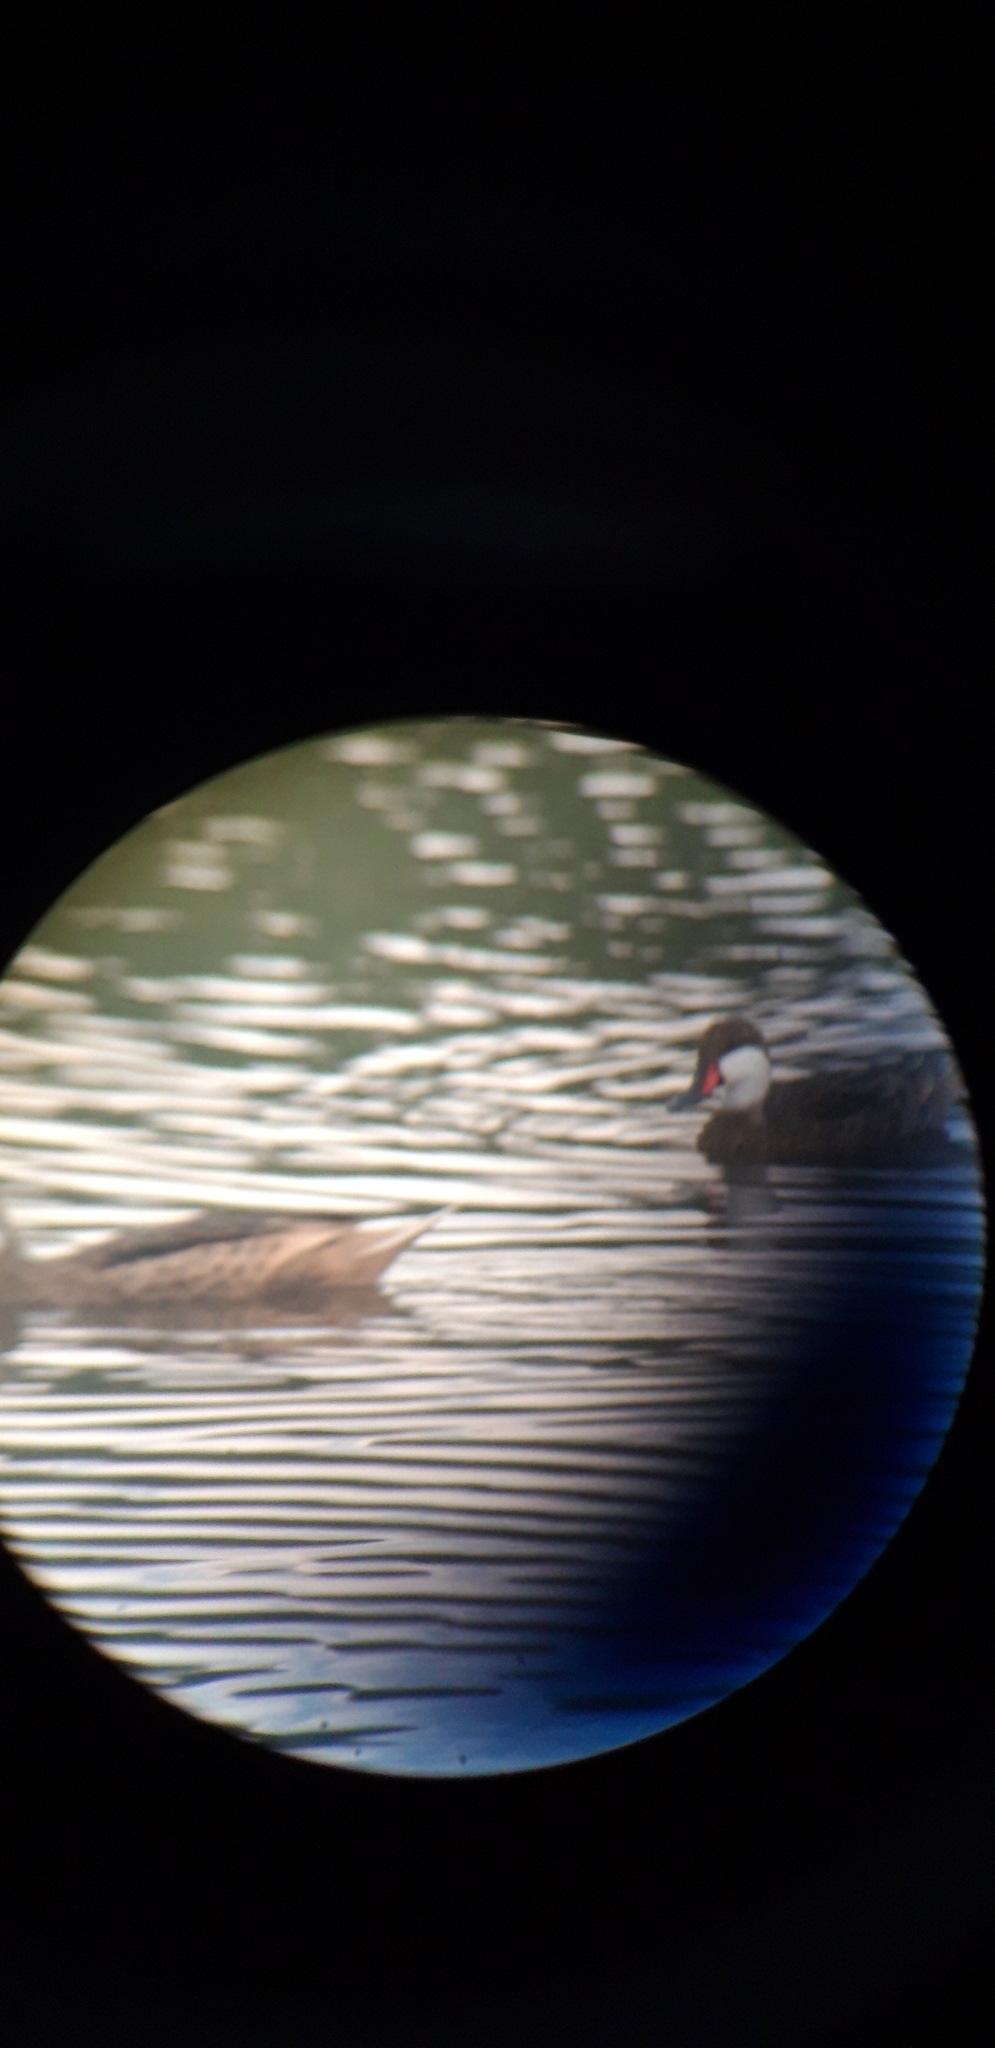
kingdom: Animalia
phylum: Chordata
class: Aves
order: Anseriformes
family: Anatidae
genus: Anas
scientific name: Anas bahamensis
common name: White-cheeked pintail
